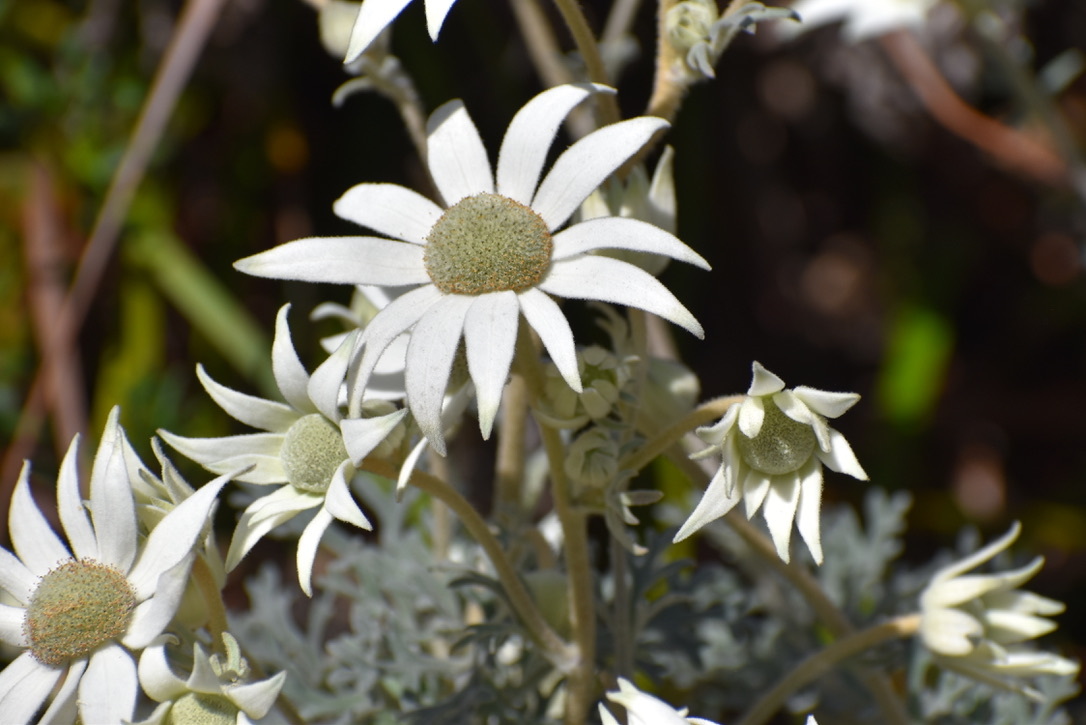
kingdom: Plantae
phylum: Tracheophyta
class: Magnoliopsida
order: Apiales
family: Apiaceae
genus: Actinotus
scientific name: Actinotus helianthi
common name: Flannel-flower
